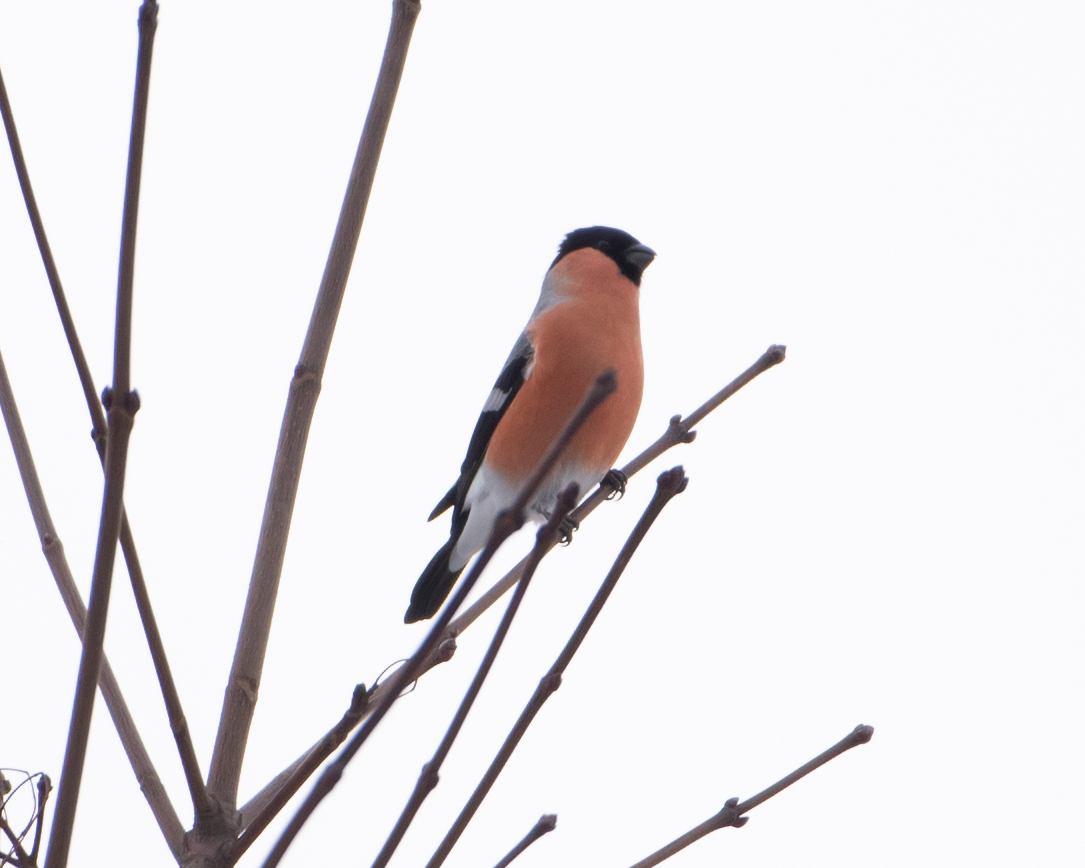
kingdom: Animalia
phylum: Chordata
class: Aves
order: Passeriformes
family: Fringillidae
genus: Pyrrhula
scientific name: Pyrrhula pyrrhula
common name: Eurasian bullfinch
